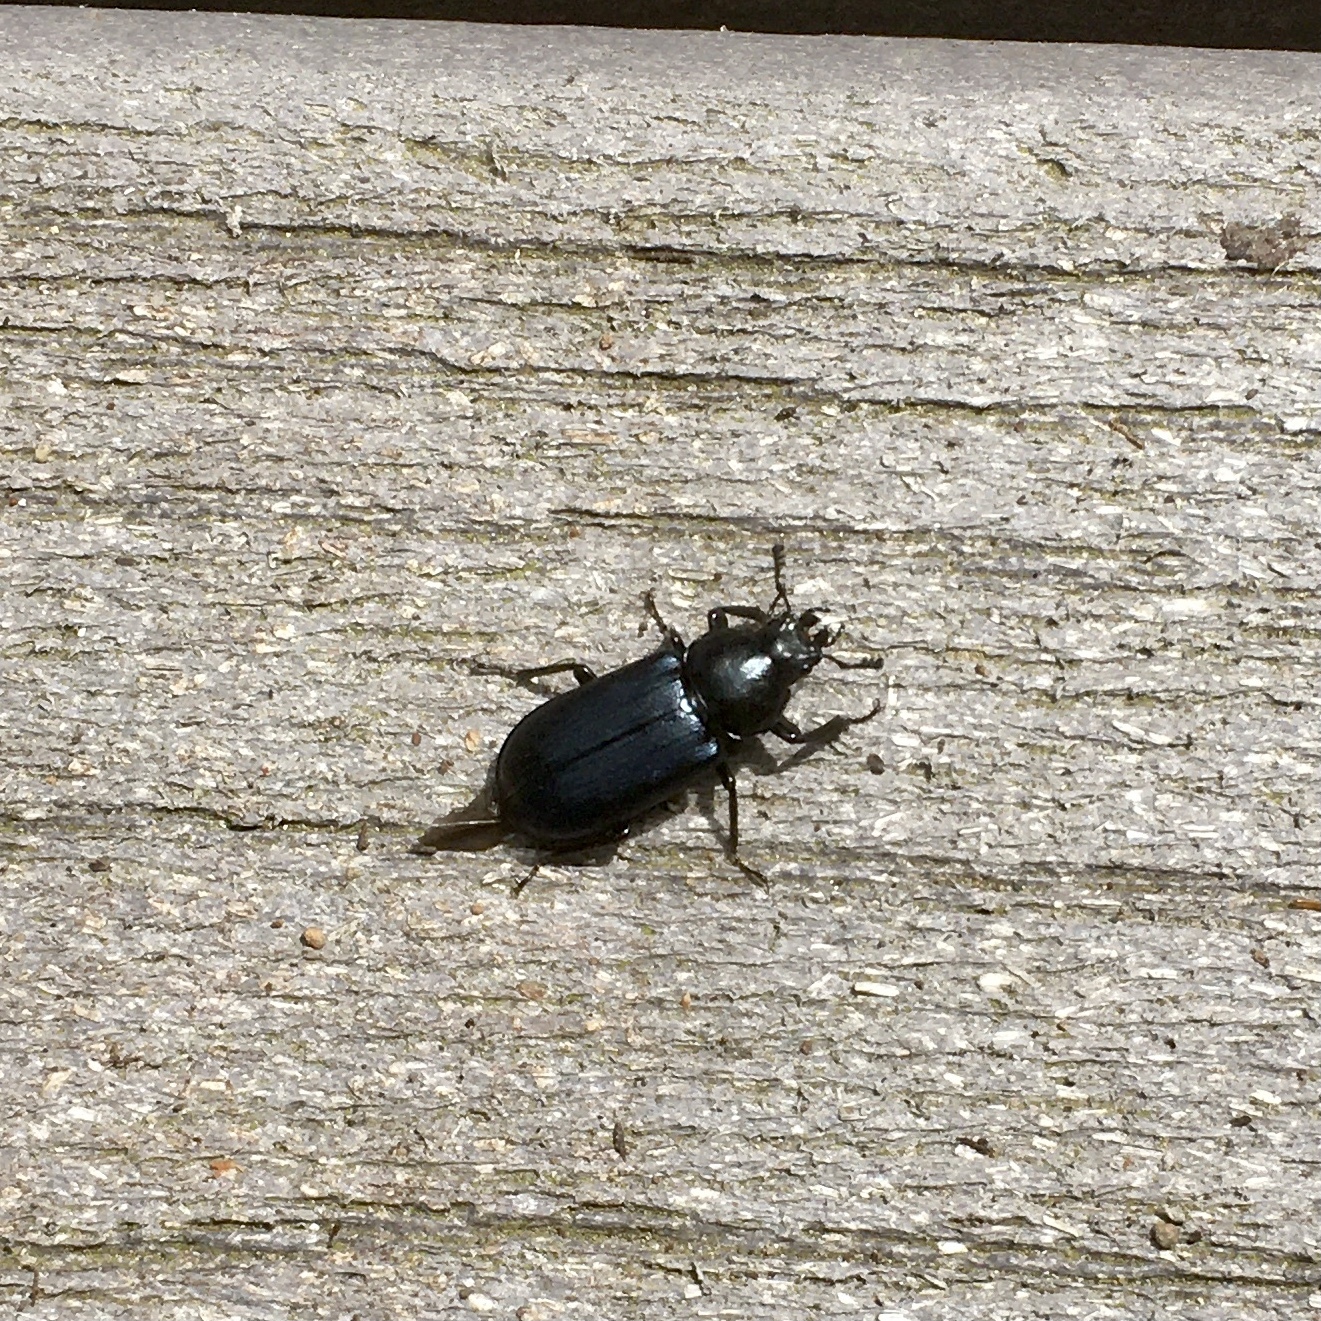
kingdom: Animalia
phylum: Arthropoda
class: Insecta
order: Coleoptera
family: Lucanidae
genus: Platycerus
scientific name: Platycerus oregonensis
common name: Oregon stag beetle
